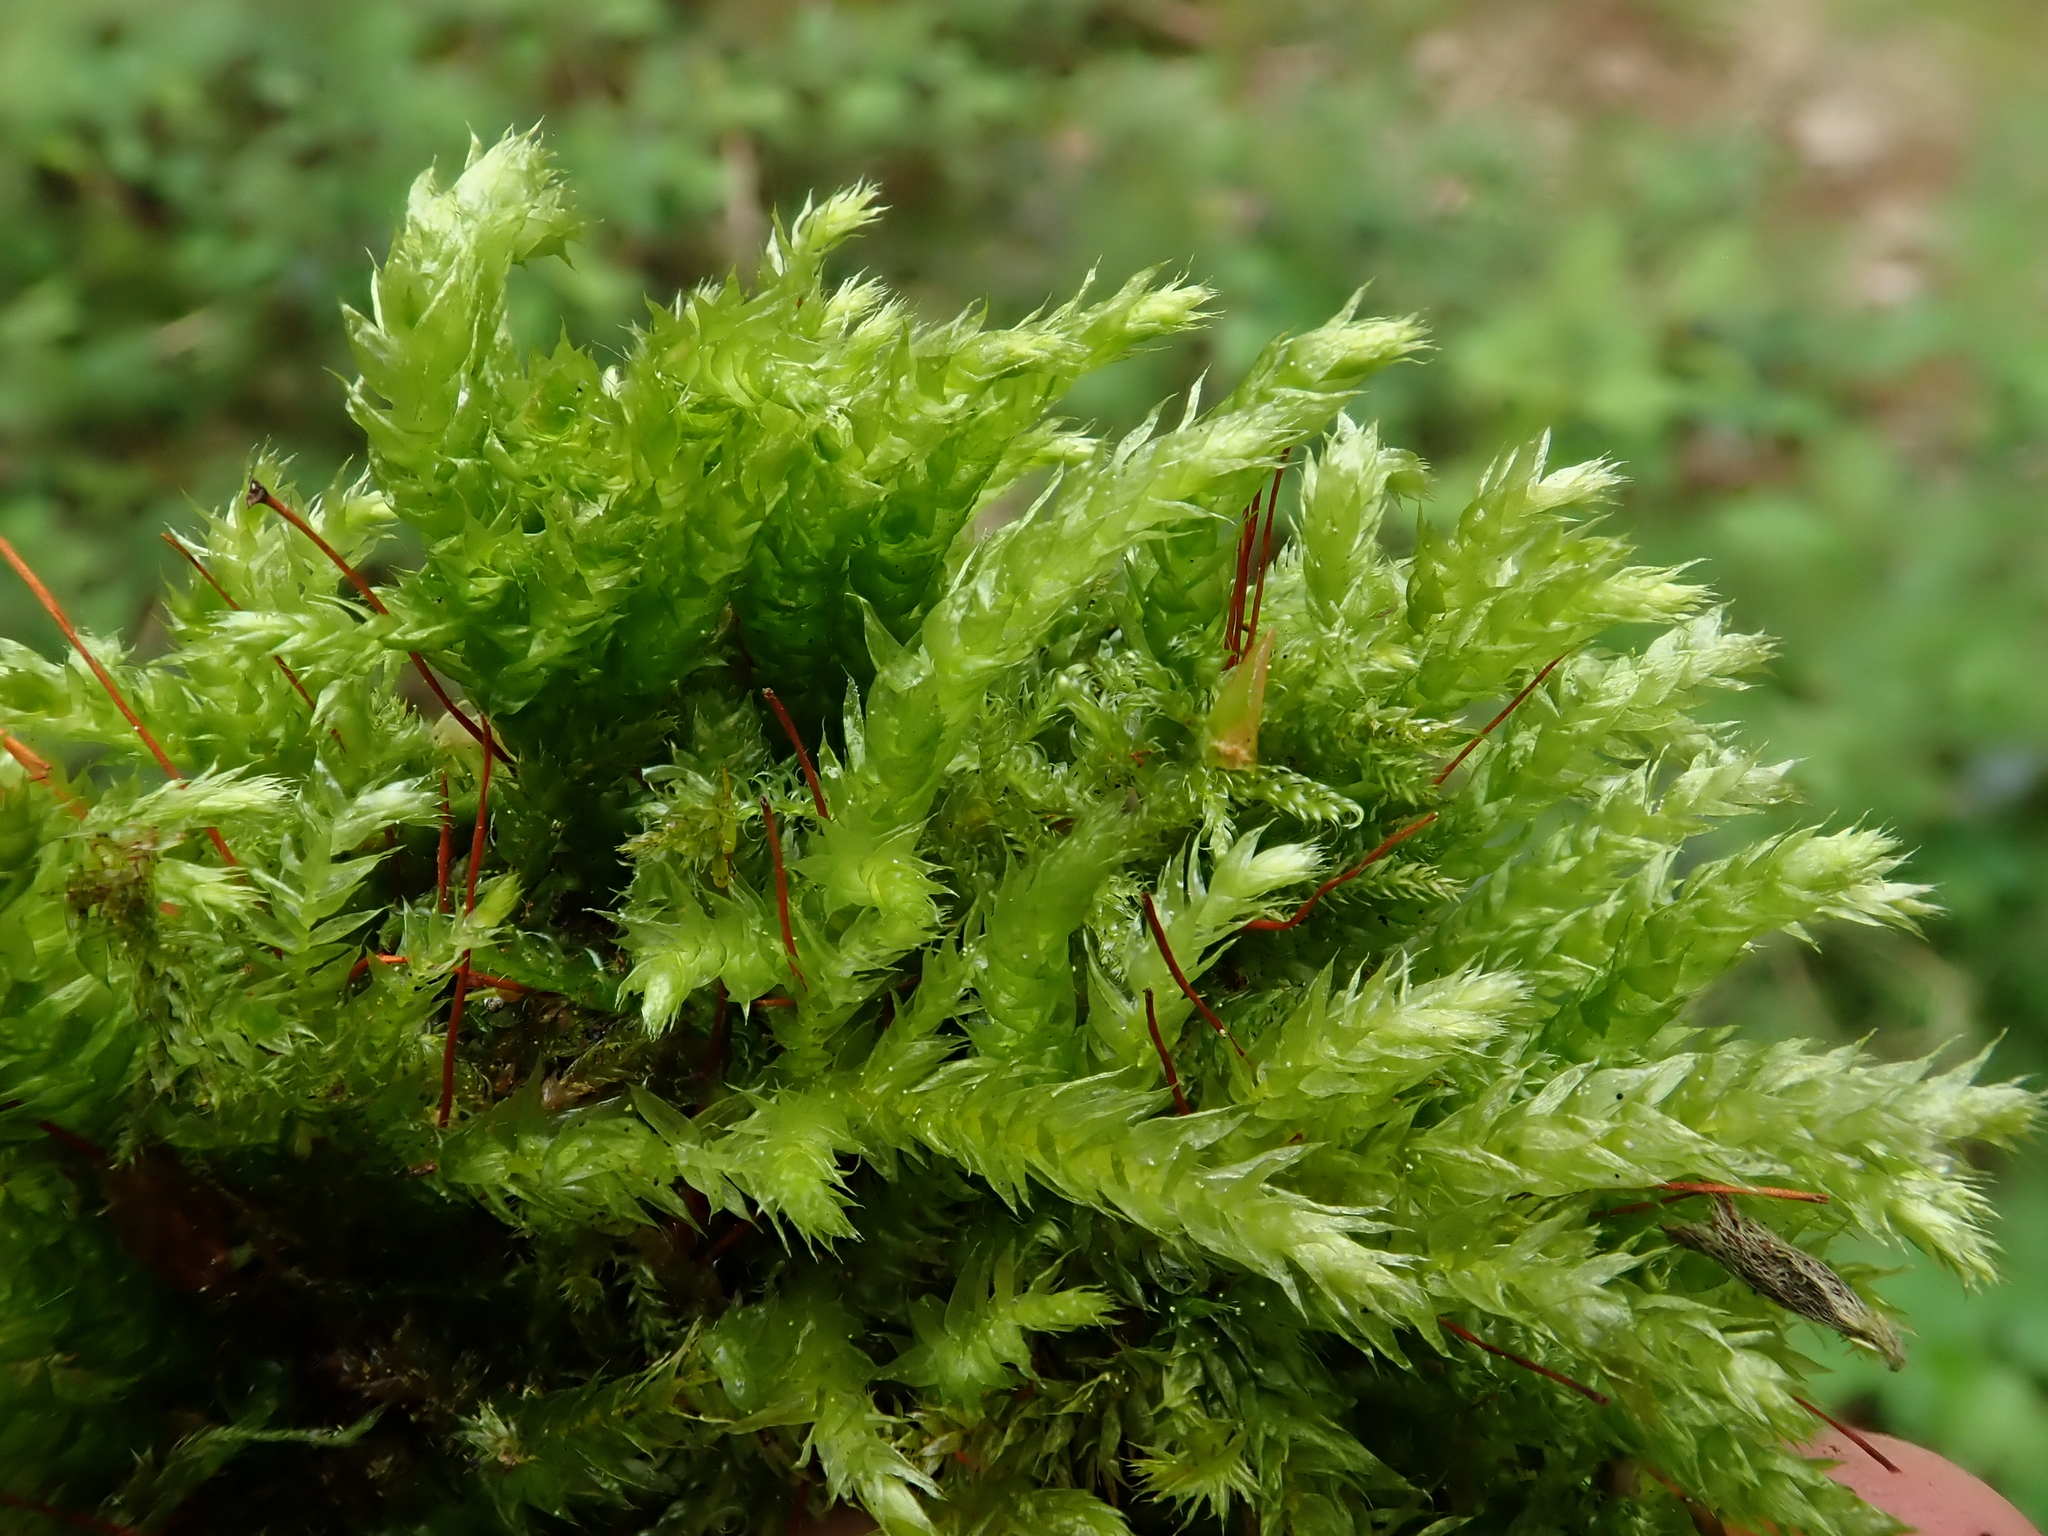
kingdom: Plantae
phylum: Bryophyta
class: Bryopsida
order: Hypnales
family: Brachytheciaceae
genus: Brachythecium
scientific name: Brachythecium rutabulum
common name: Rough-stalked feather-moss
